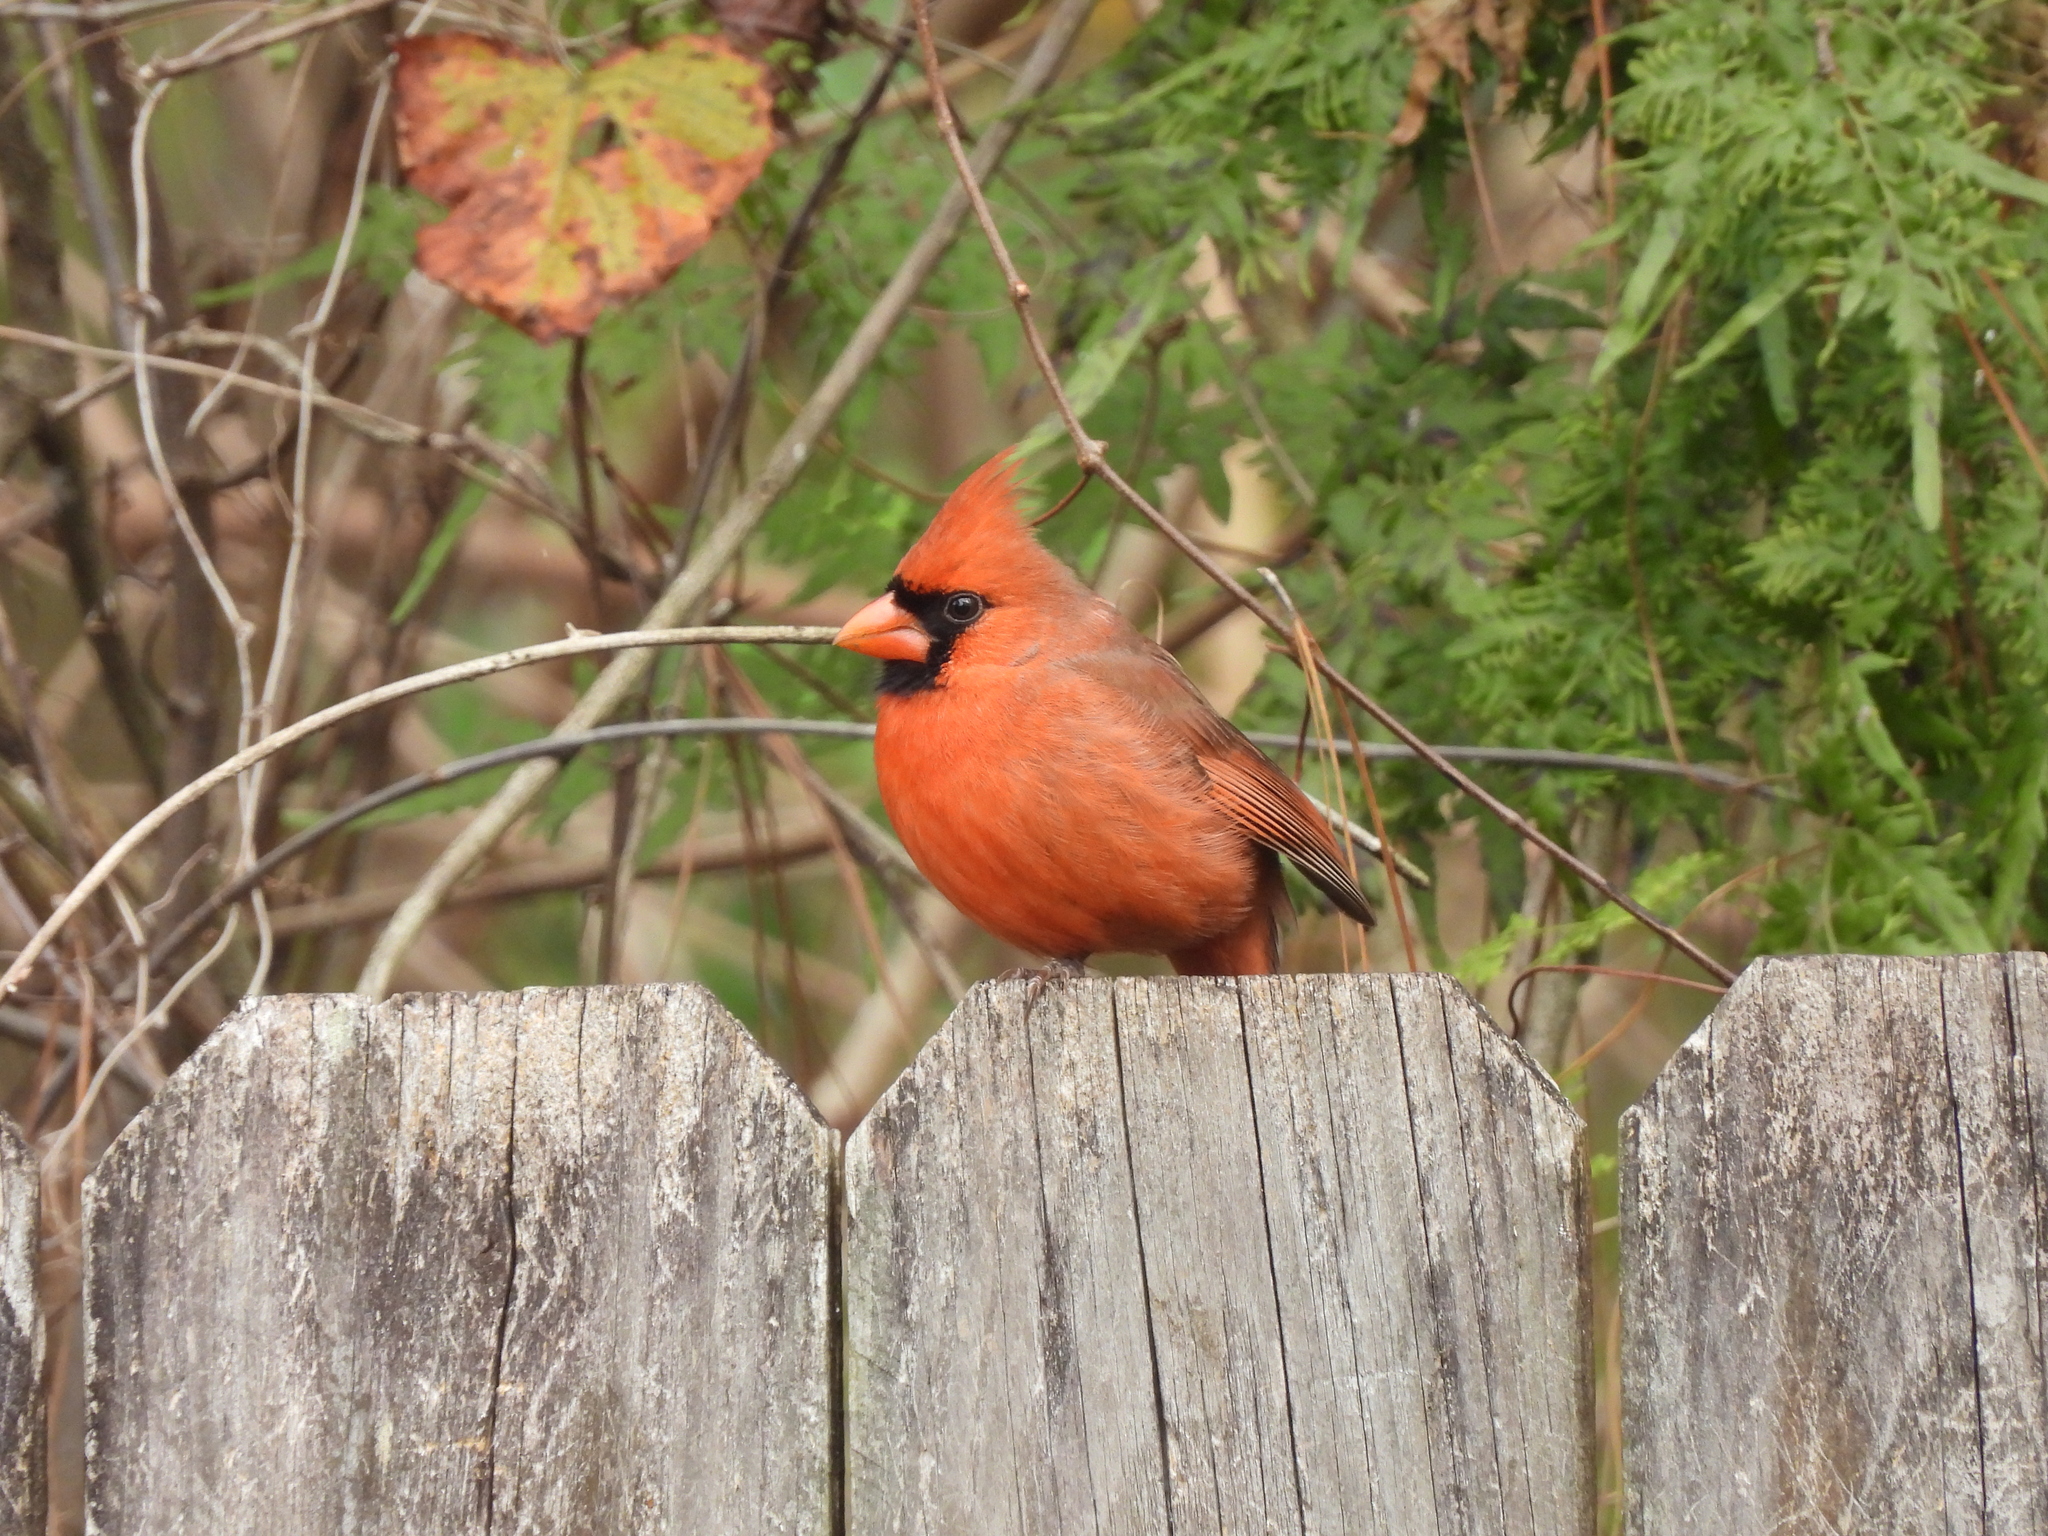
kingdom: Animalia
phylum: Chordata
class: Aves
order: Passeriformes
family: Cardinalidae
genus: Cardinalis
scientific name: Cardinalis cardinalis
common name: Northern cardinal
